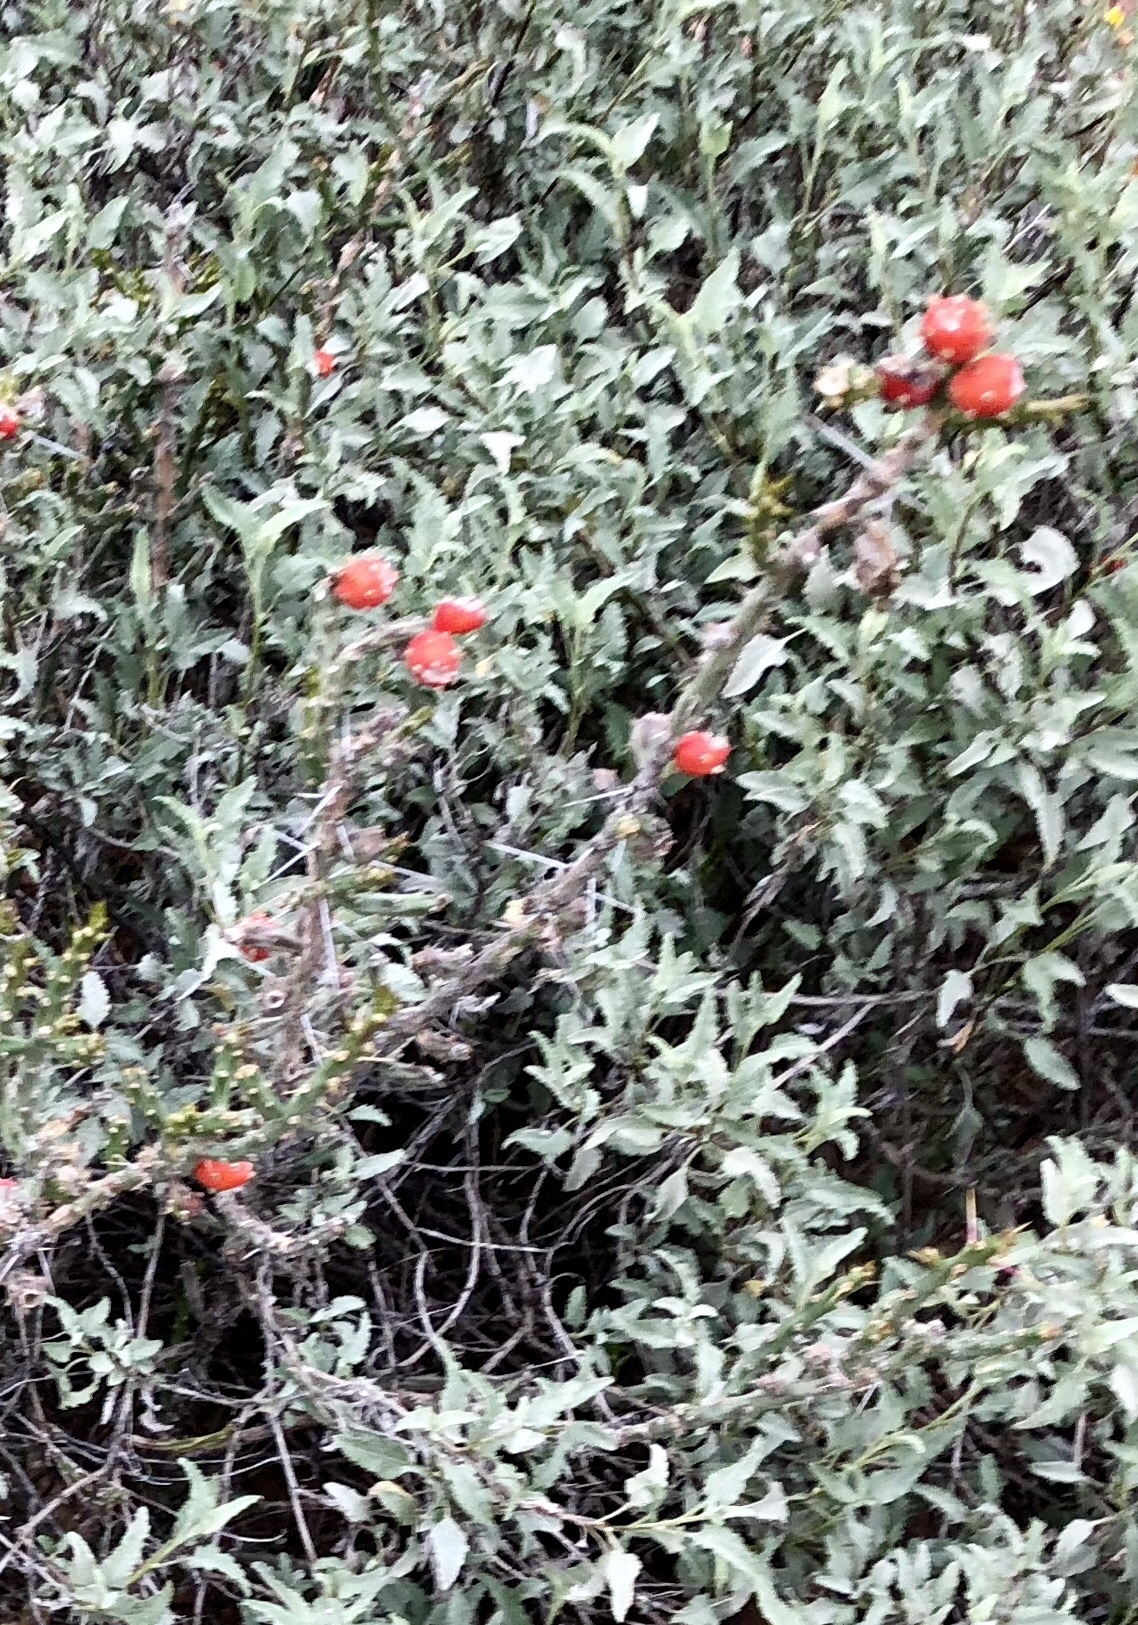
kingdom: Plantae
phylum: Tracheophyta
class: Magnoliopsida
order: Caryophyllales
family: Cactaceae
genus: Cylindropuntia
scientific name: Cylindropuntia leptocaulis
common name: Christmas cactus
